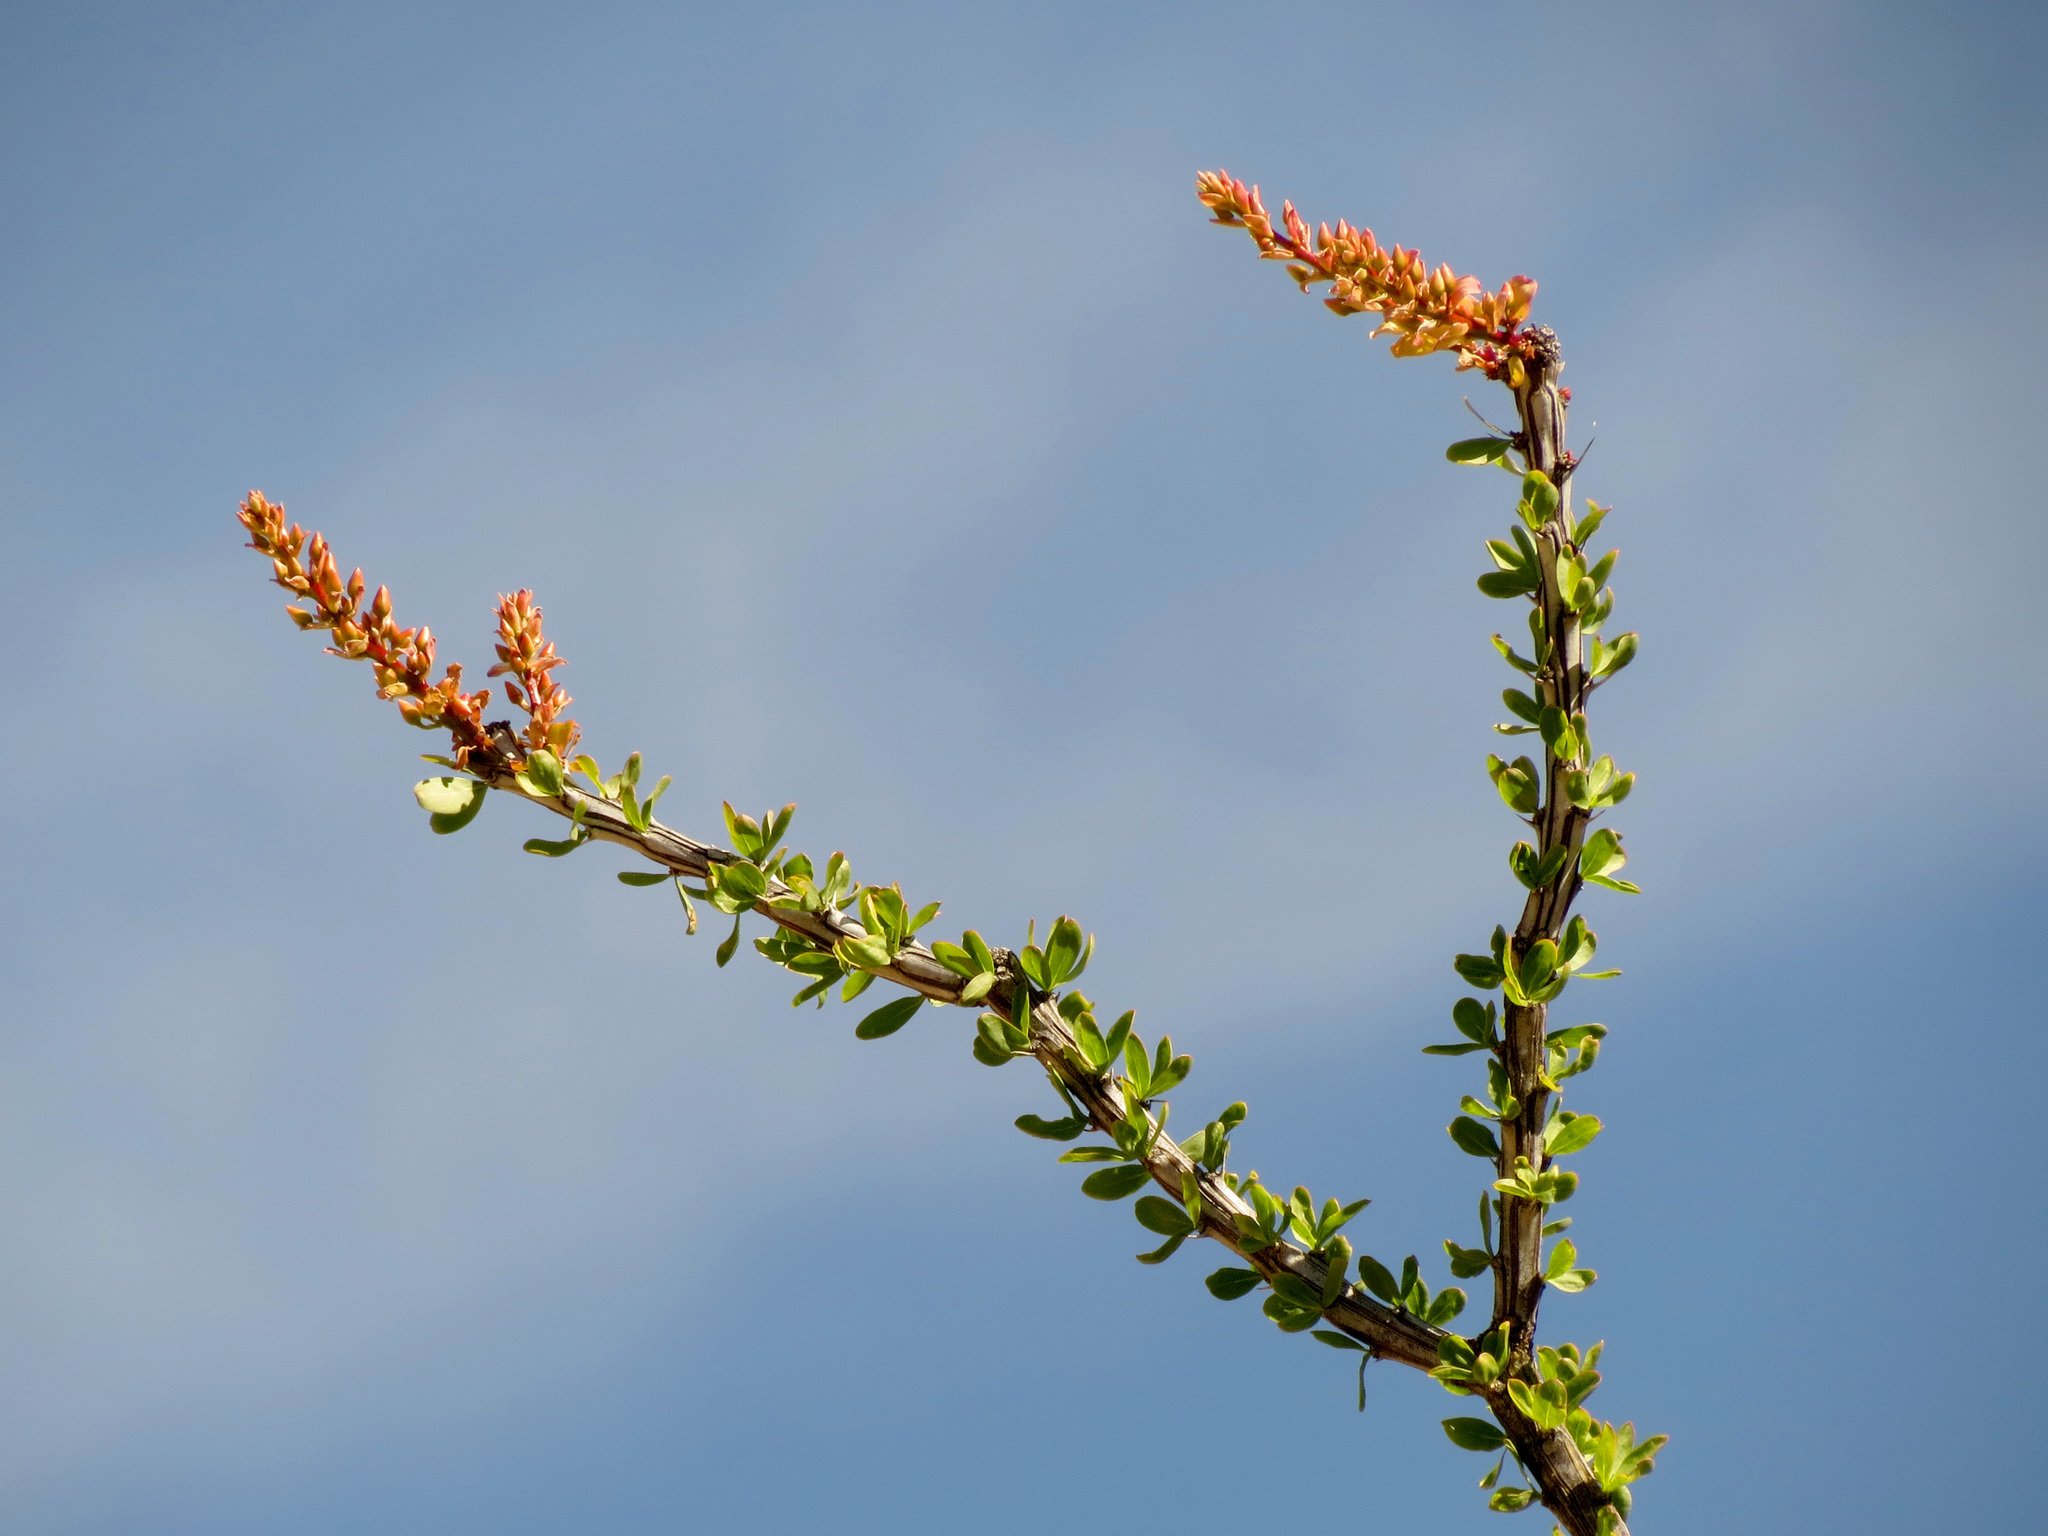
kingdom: Plantae
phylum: Tracheophyta
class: Magnoliopsida
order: Ericales
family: Fouquieriaceae
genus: Fouquieria
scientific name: Fouquieria splendens
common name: Vine-cactus
